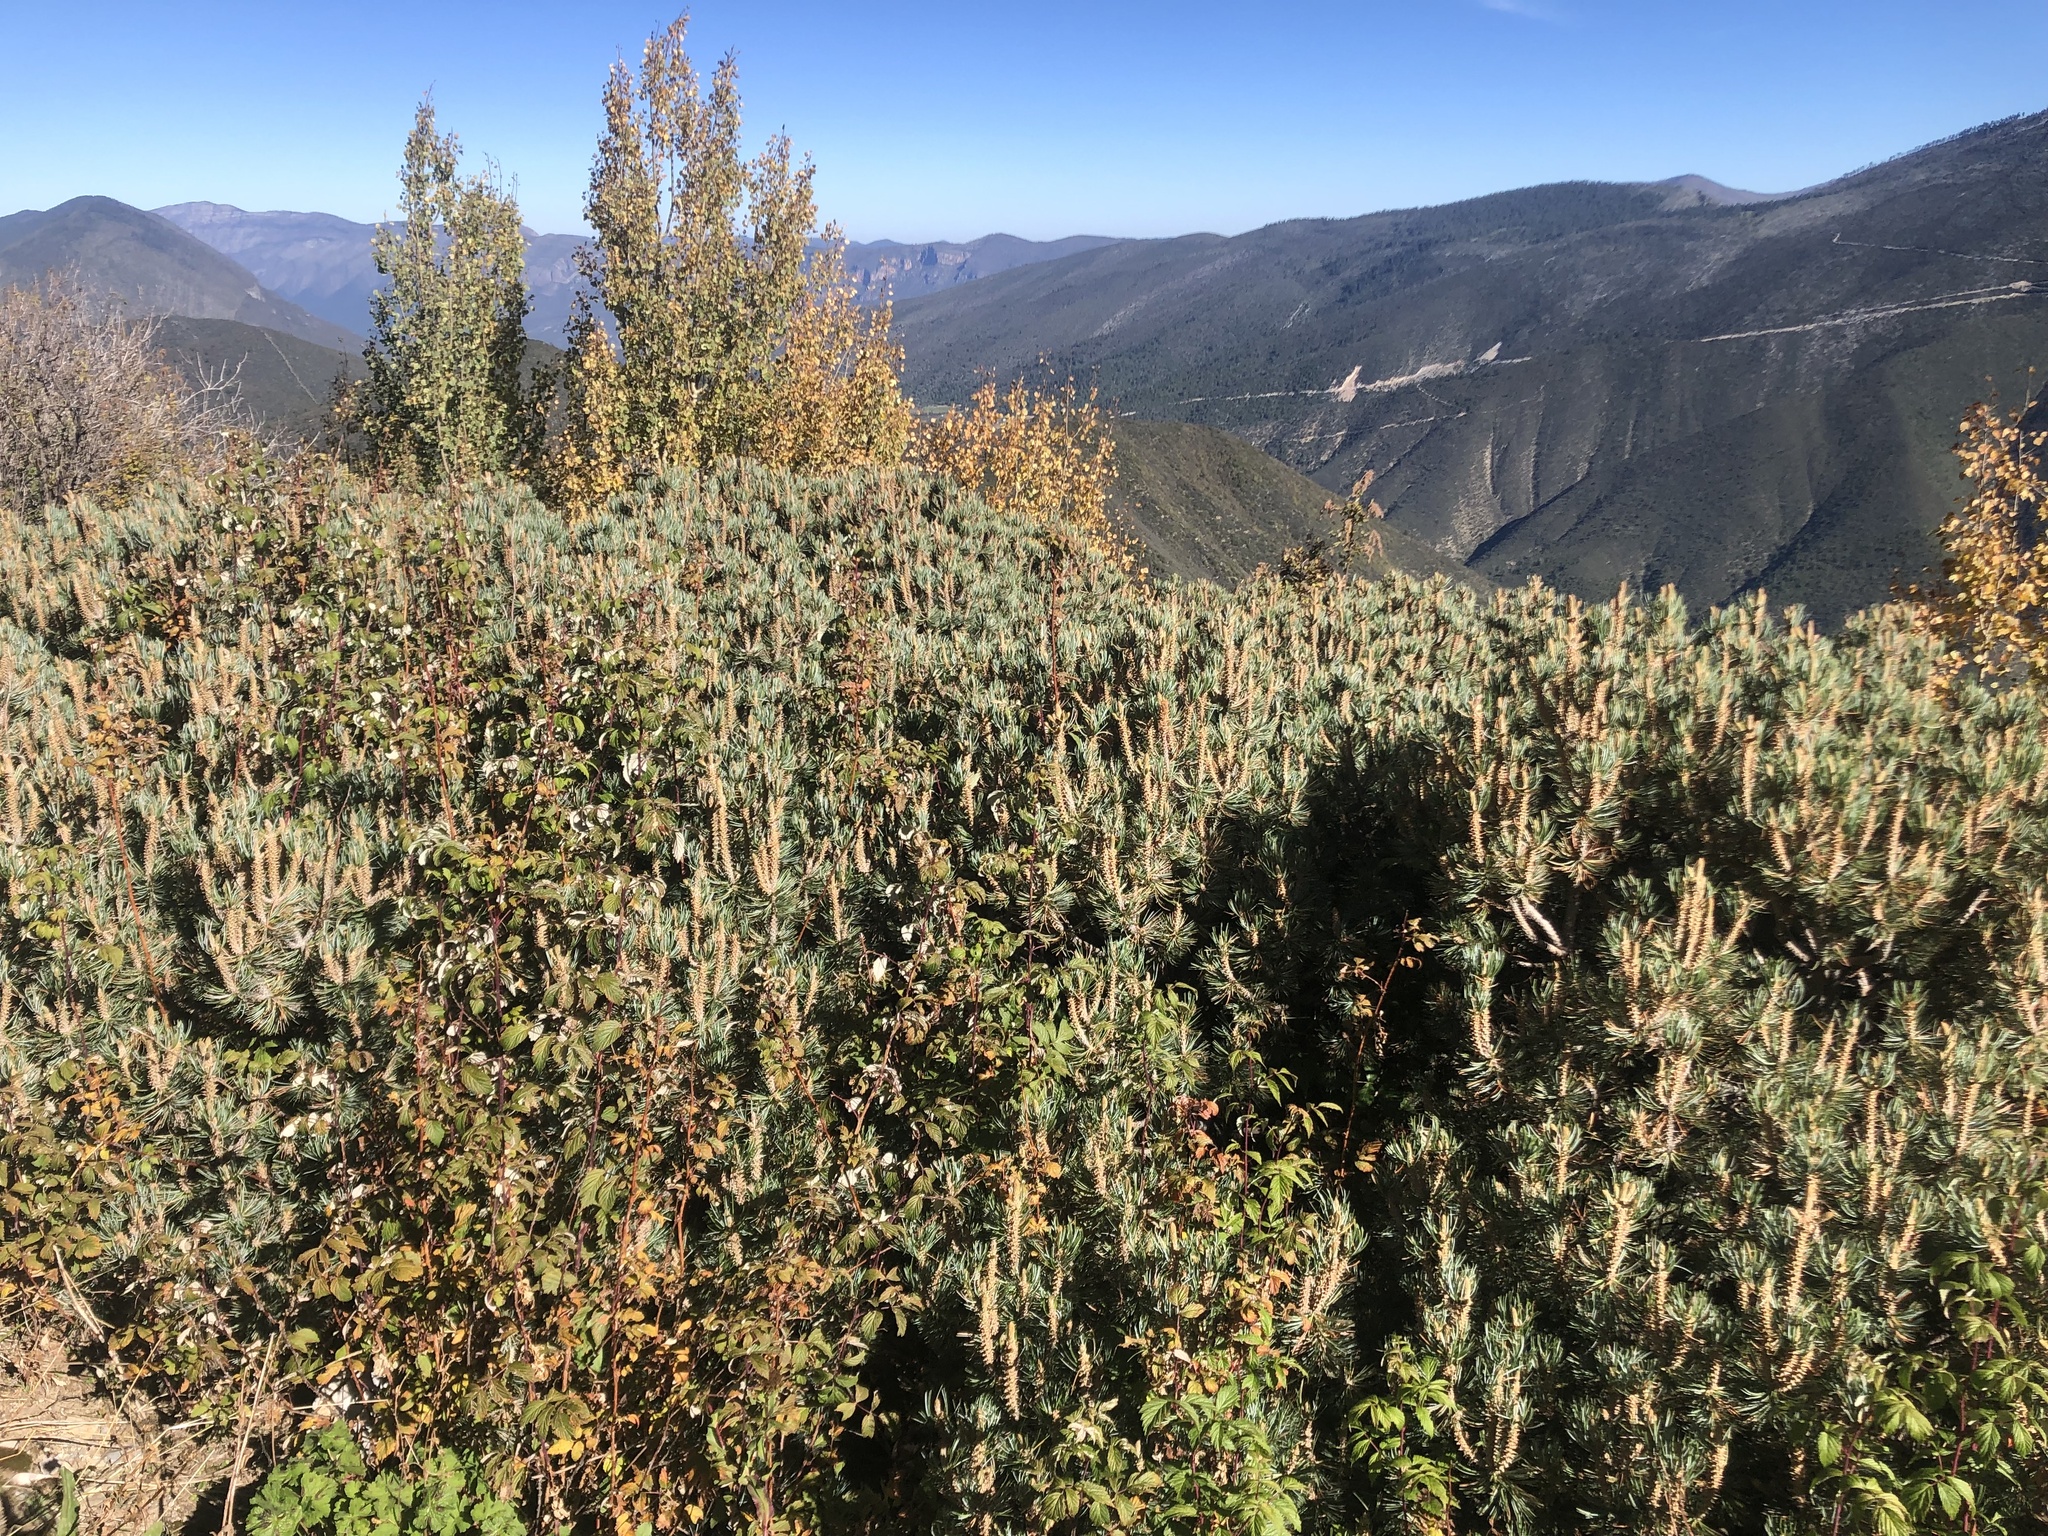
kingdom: Plantae
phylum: Tracheophyta
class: Pinopsida
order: Pinales
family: Pinaceae
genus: Pinus
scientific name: Pinus culminicola
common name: Potosi pinyon pine
